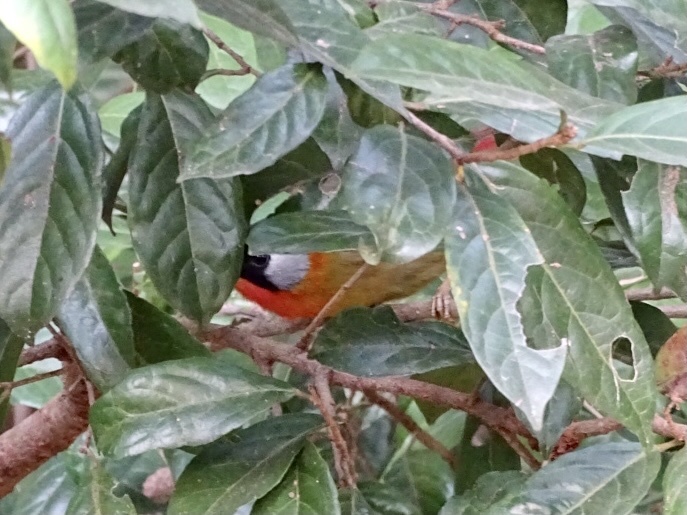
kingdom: Animalia
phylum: Chordata
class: Aves
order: Passeriformes
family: Leiothrichidae
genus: Leiothrix
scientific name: Leiothrix argentauris
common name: Silver-eared mesia
